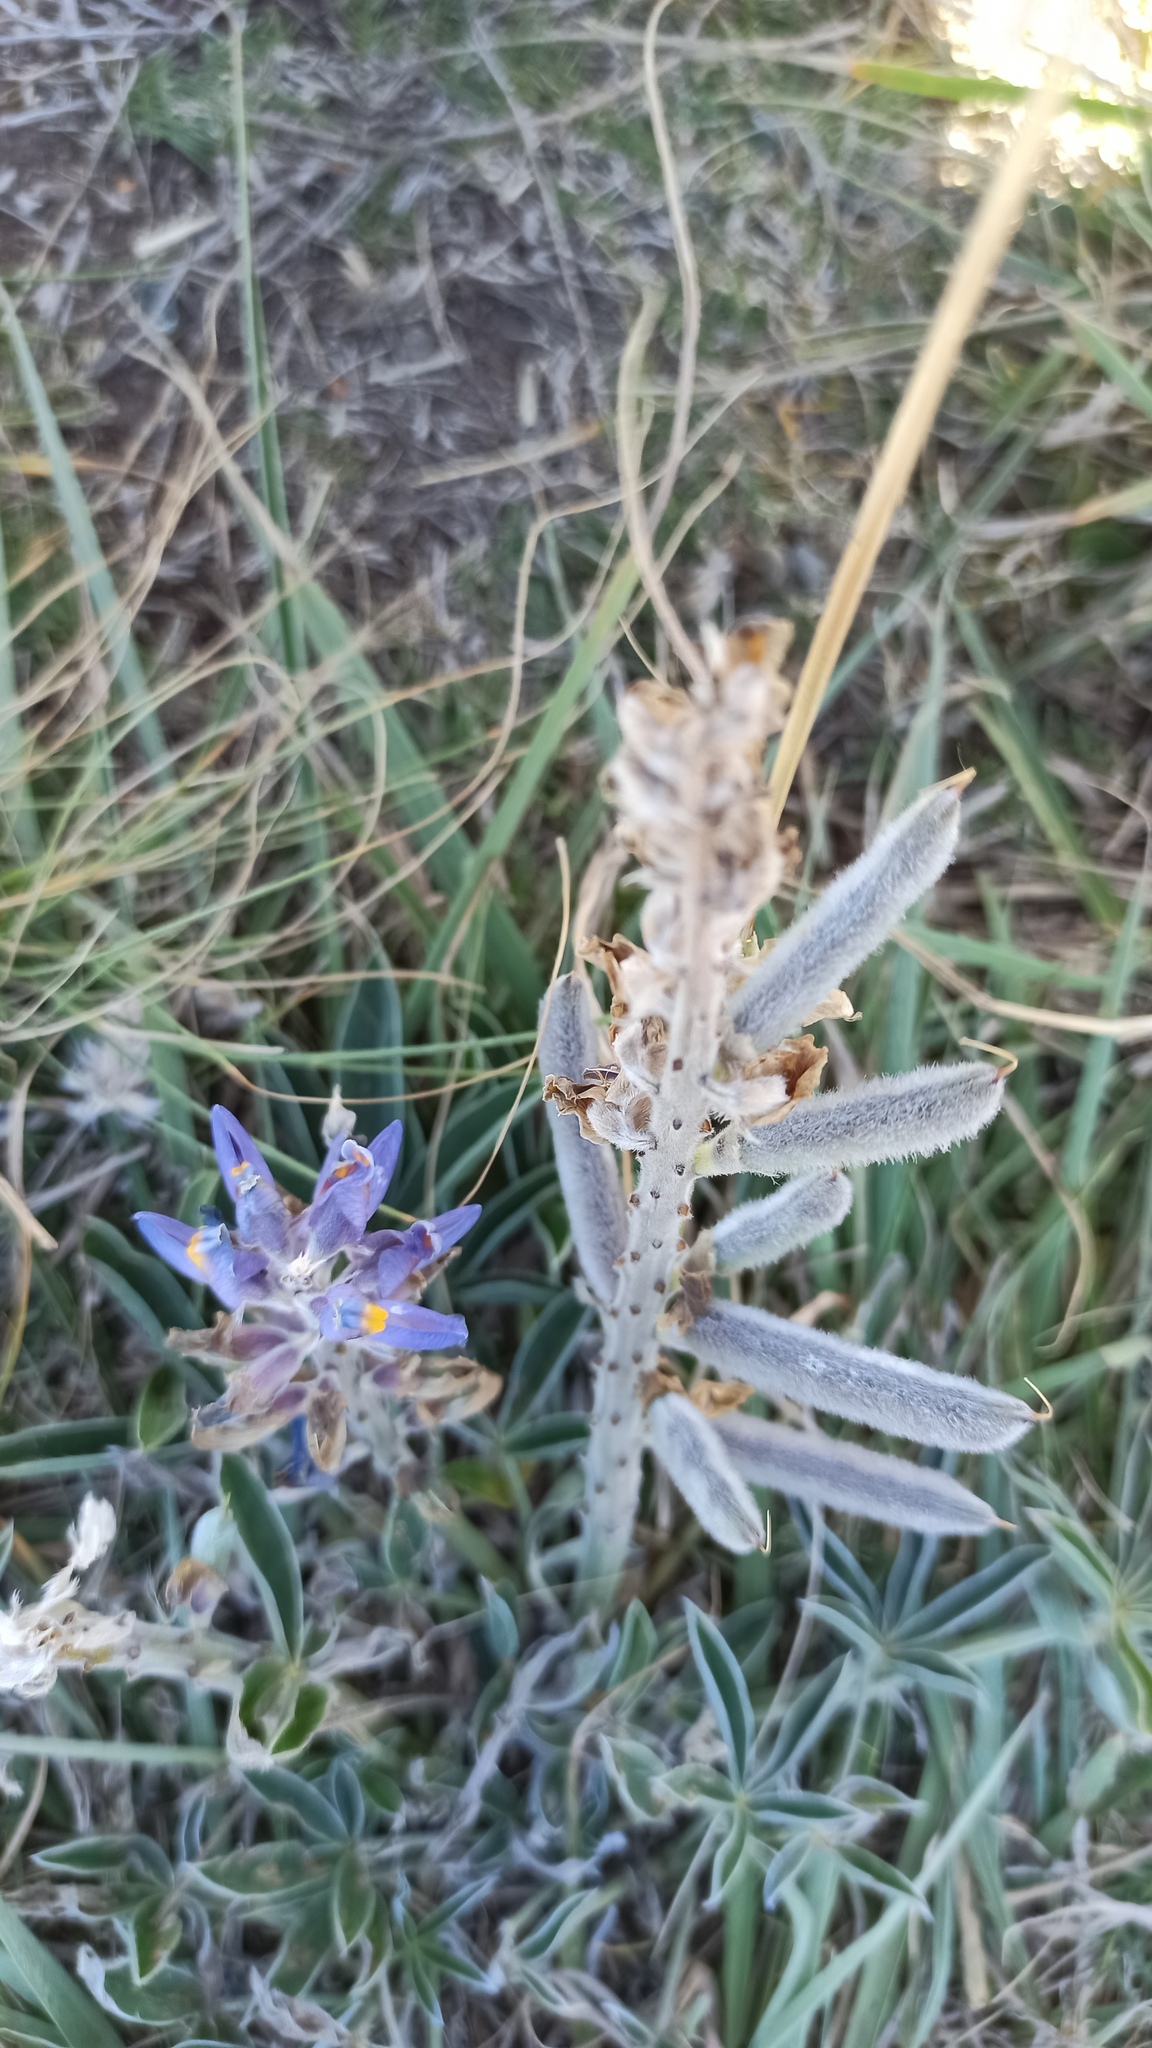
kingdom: Plantae
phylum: Tracheophyta
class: Magnoliopsida
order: Fabales
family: Fabaceae
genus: Lupinus
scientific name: Lupinus multiflorus
